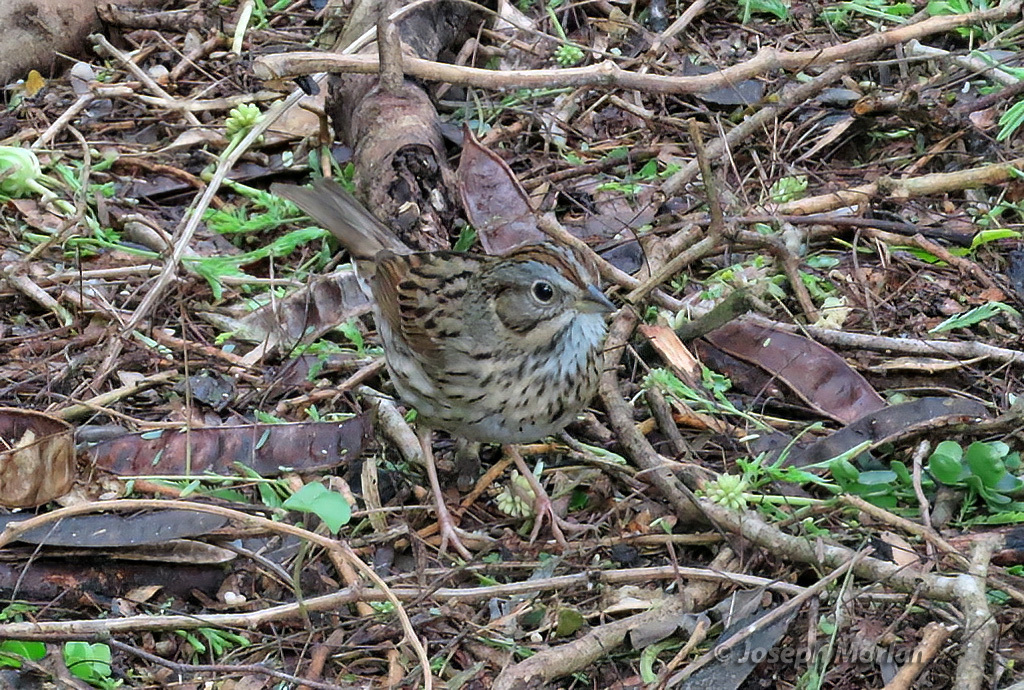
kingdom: Animalia
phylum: Chordata
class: Aves
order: Passeriformes
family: Passerellidae
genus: Melospiza
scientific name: Melospiza lincolnii
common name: Lincoln's sparrow
